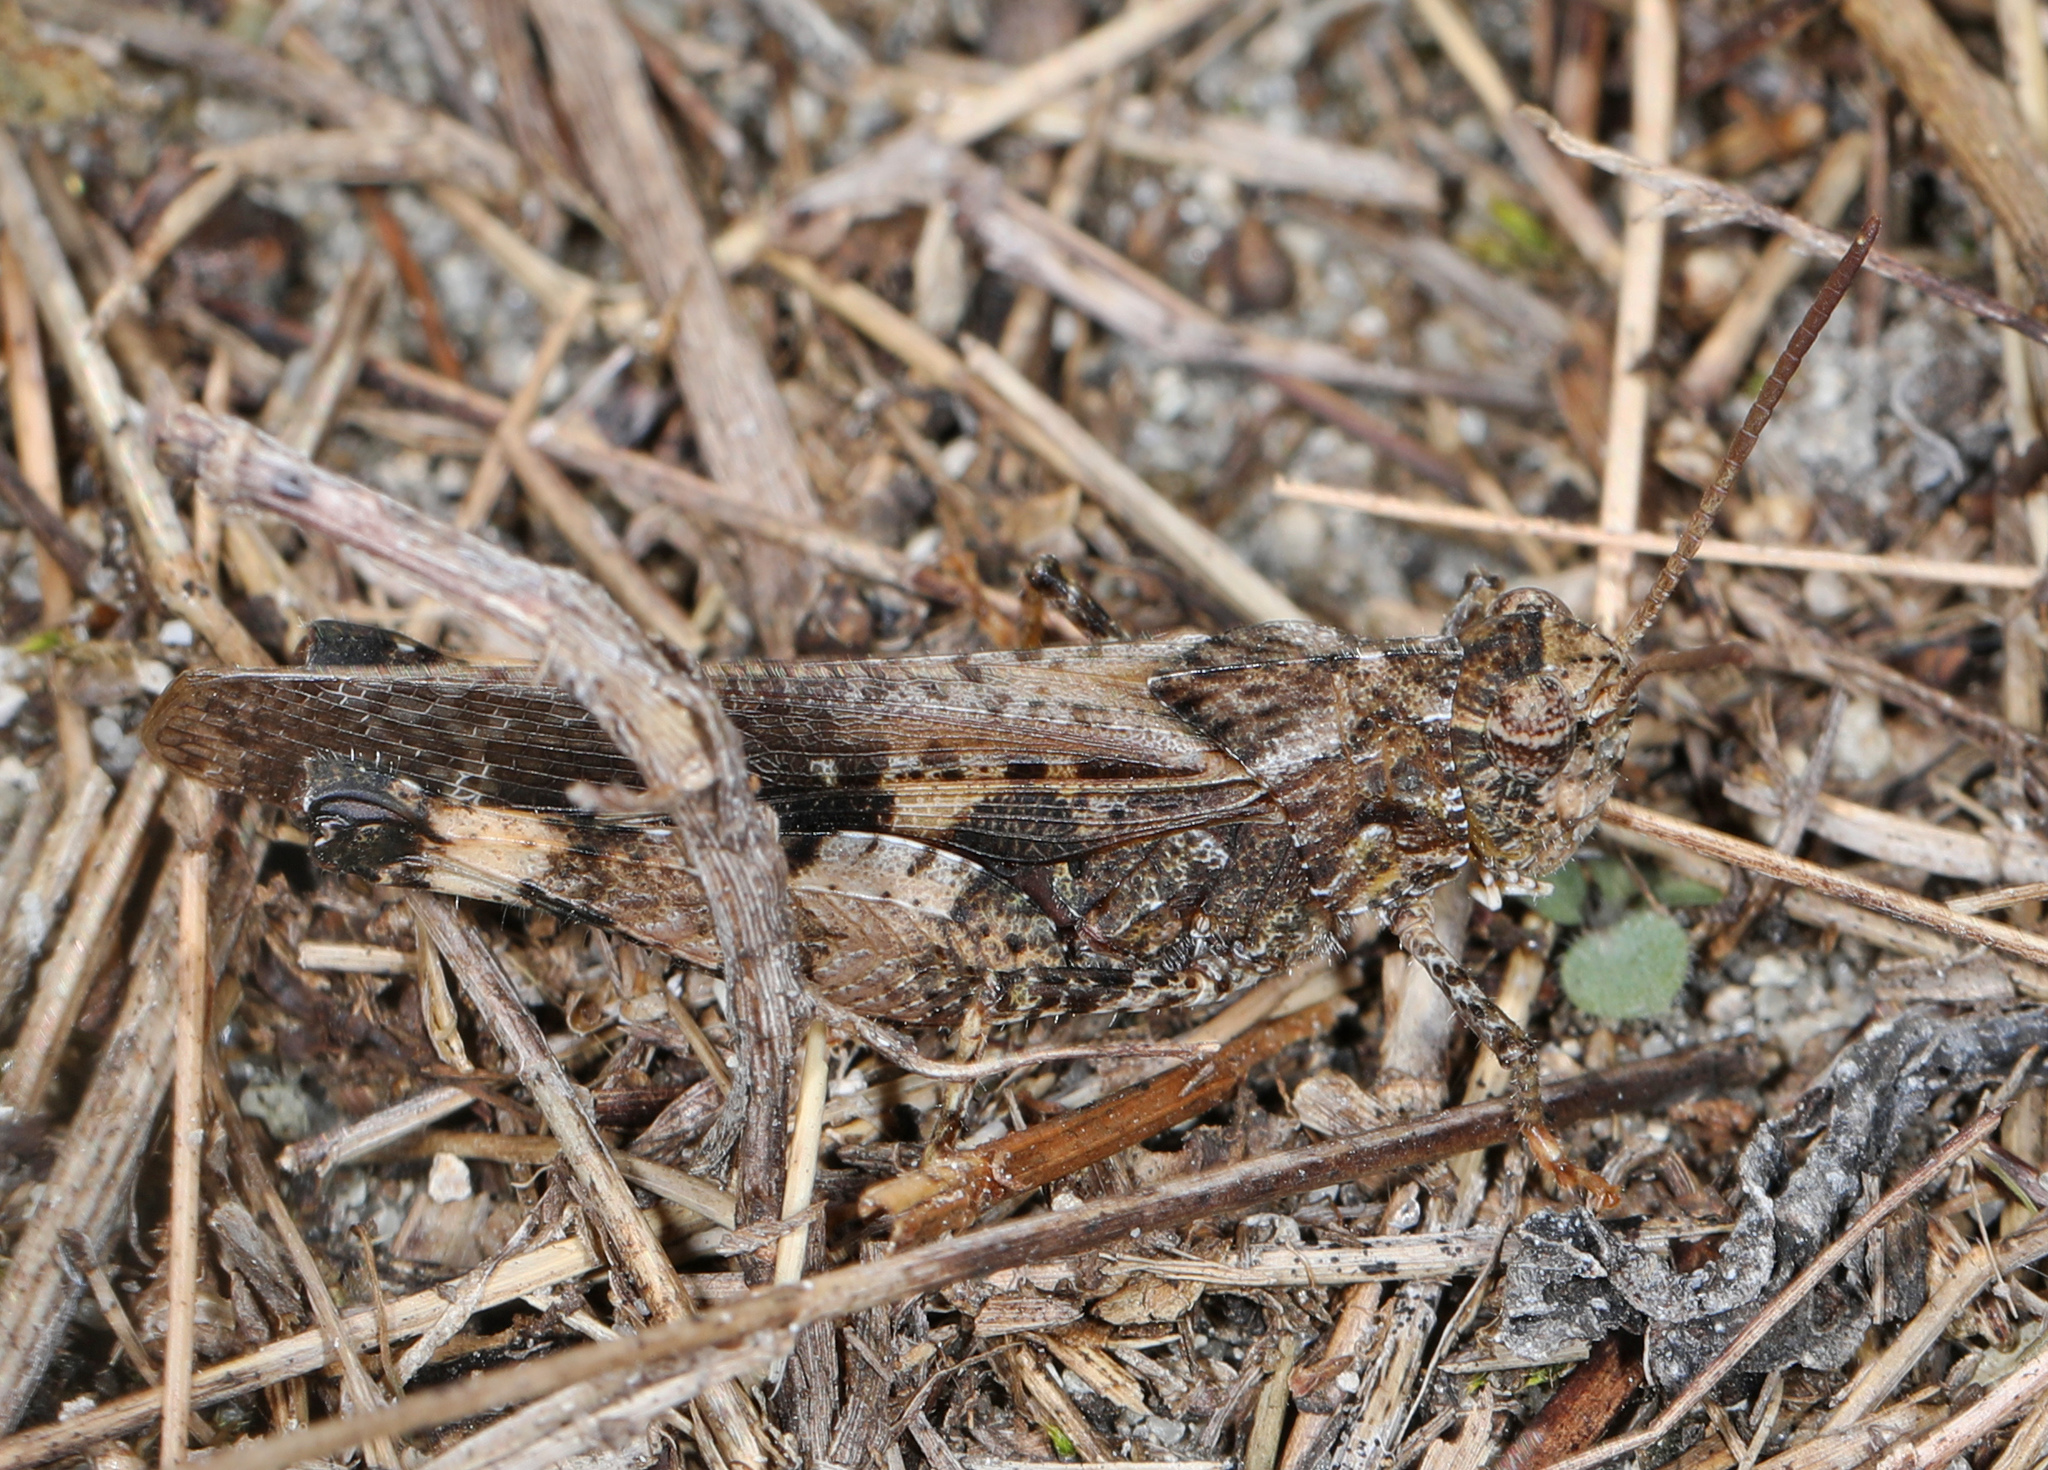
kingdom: Animalia
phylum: Arthropoda
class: Insecta
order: Orthoptera
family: Acrididae
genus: Chortophaga
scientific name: Chortophaga australior
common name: Southern green-striped grasshopper
